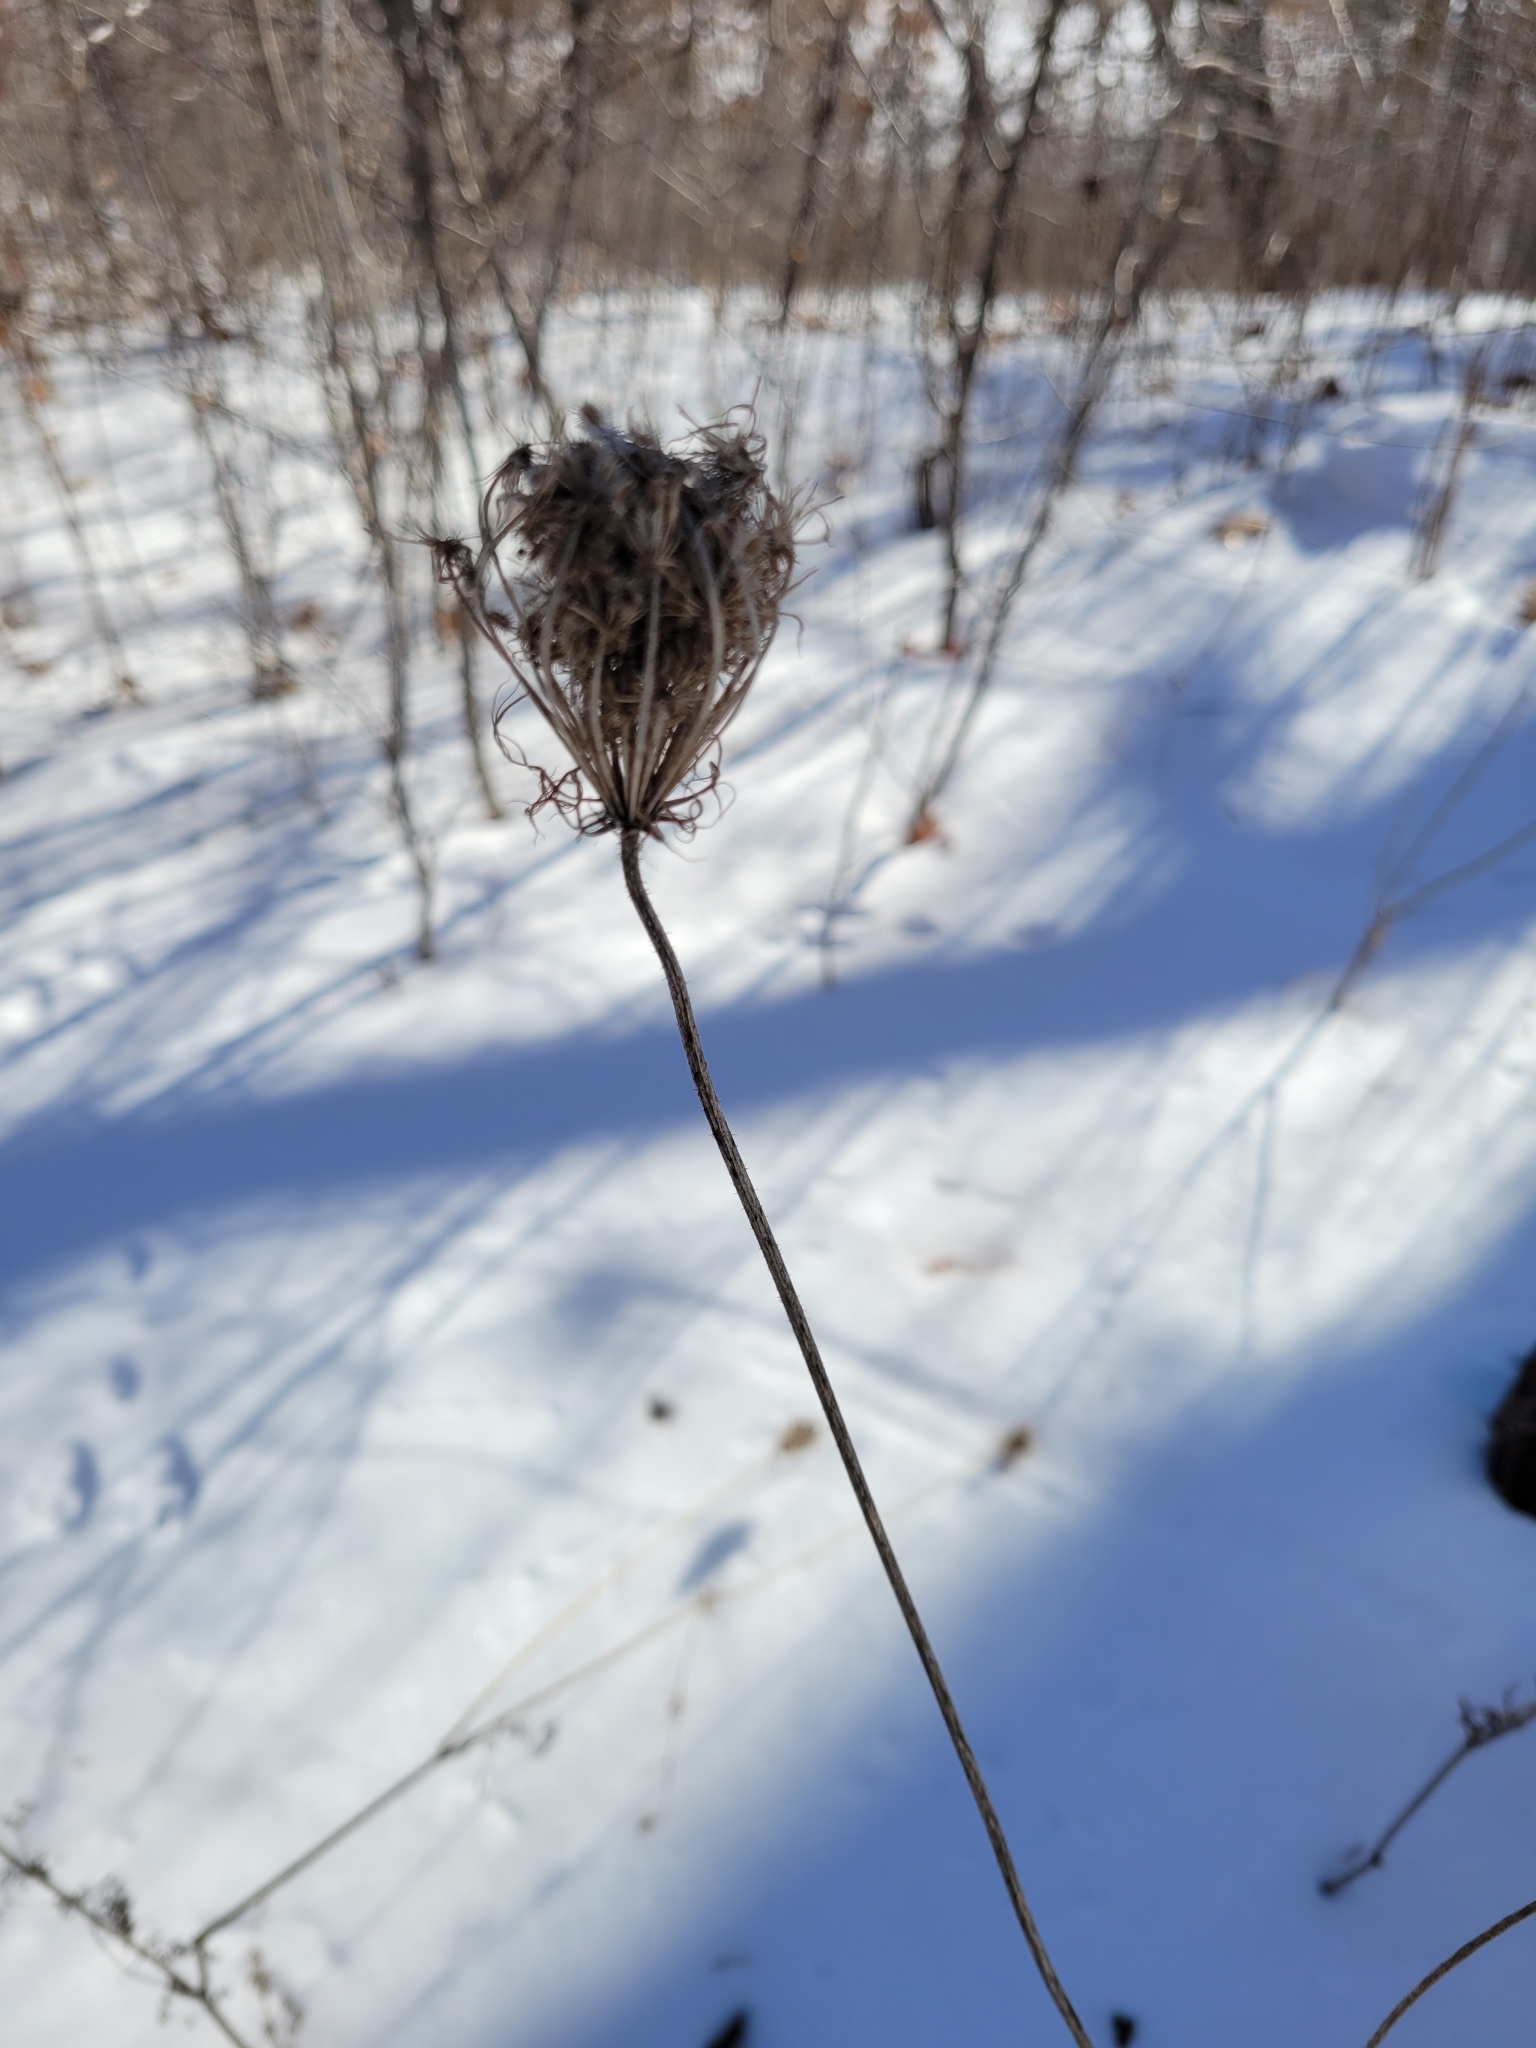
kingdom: Plantae
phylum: Tracheophyta
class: Magnoliopsida
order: Apiales
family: Apiaceae
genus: Daucus
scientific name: Daucus carota
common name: Wild carrot
